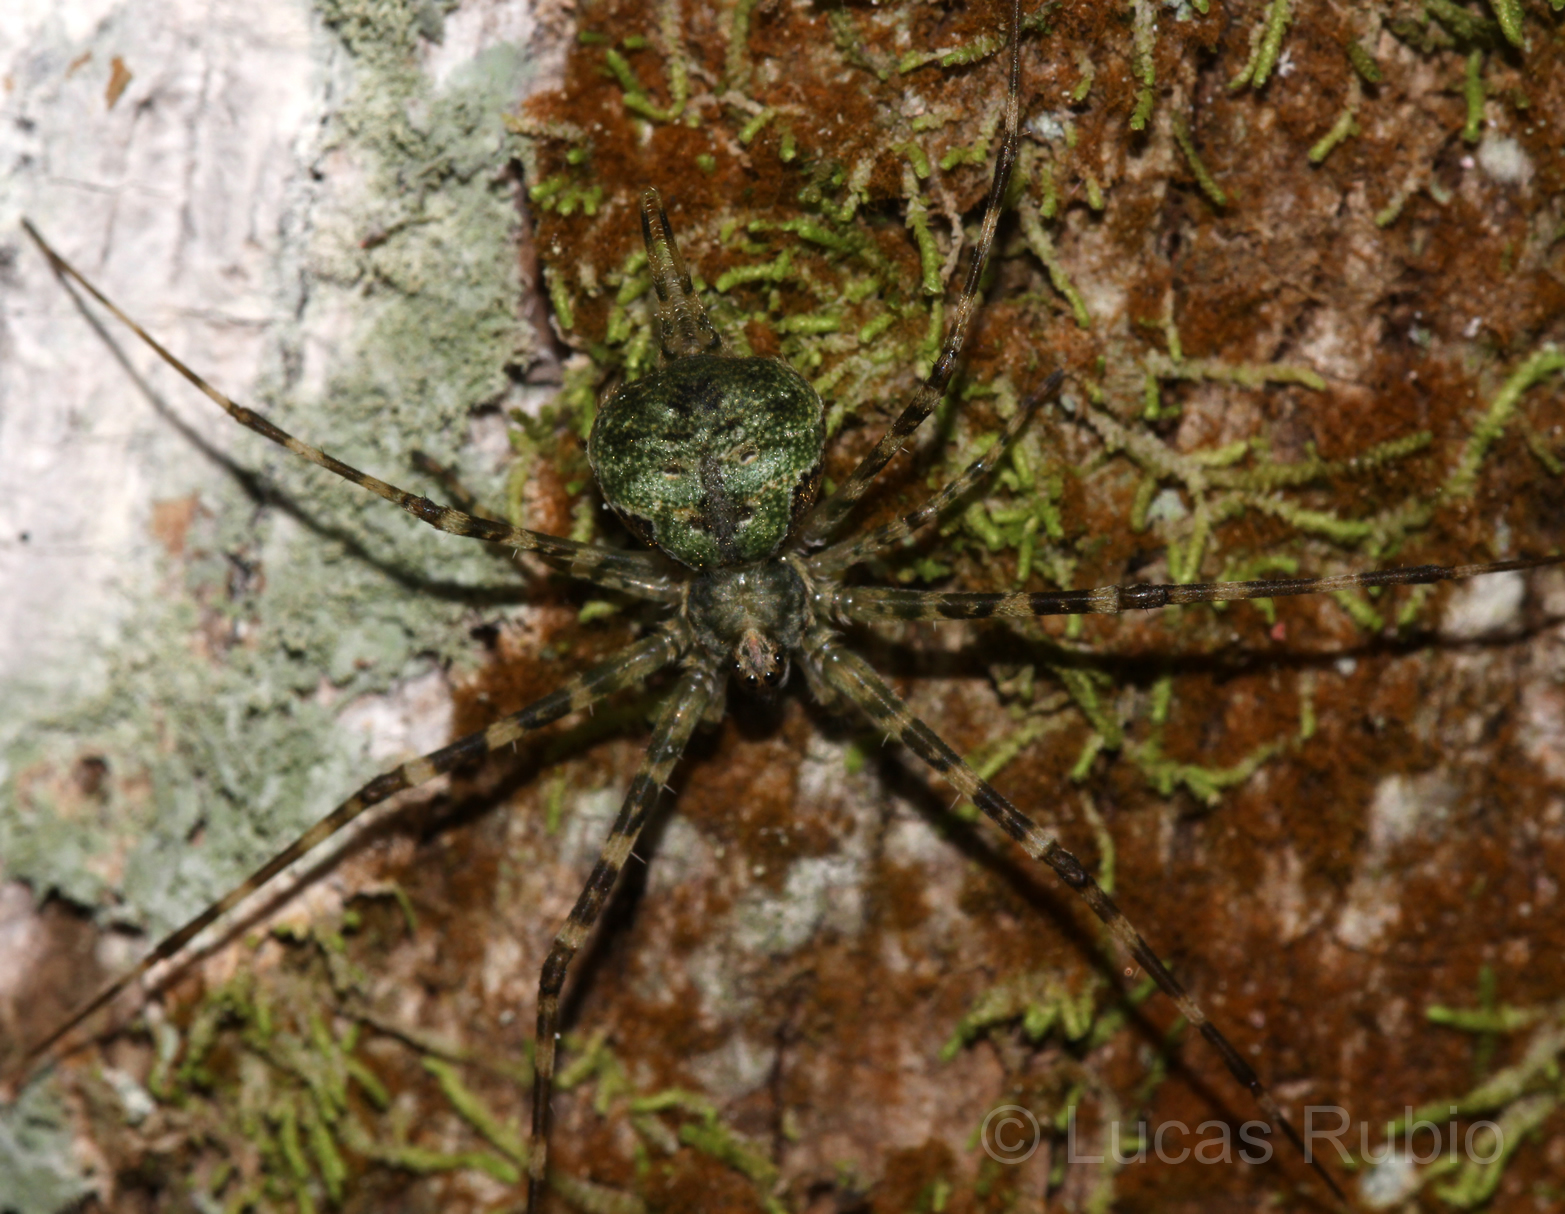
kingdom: Animalia
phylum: Arthropoda
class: Arachnida
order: Araneae
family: Hersiliidae
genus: Ypypuera
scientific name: Ypypuera crucifera
